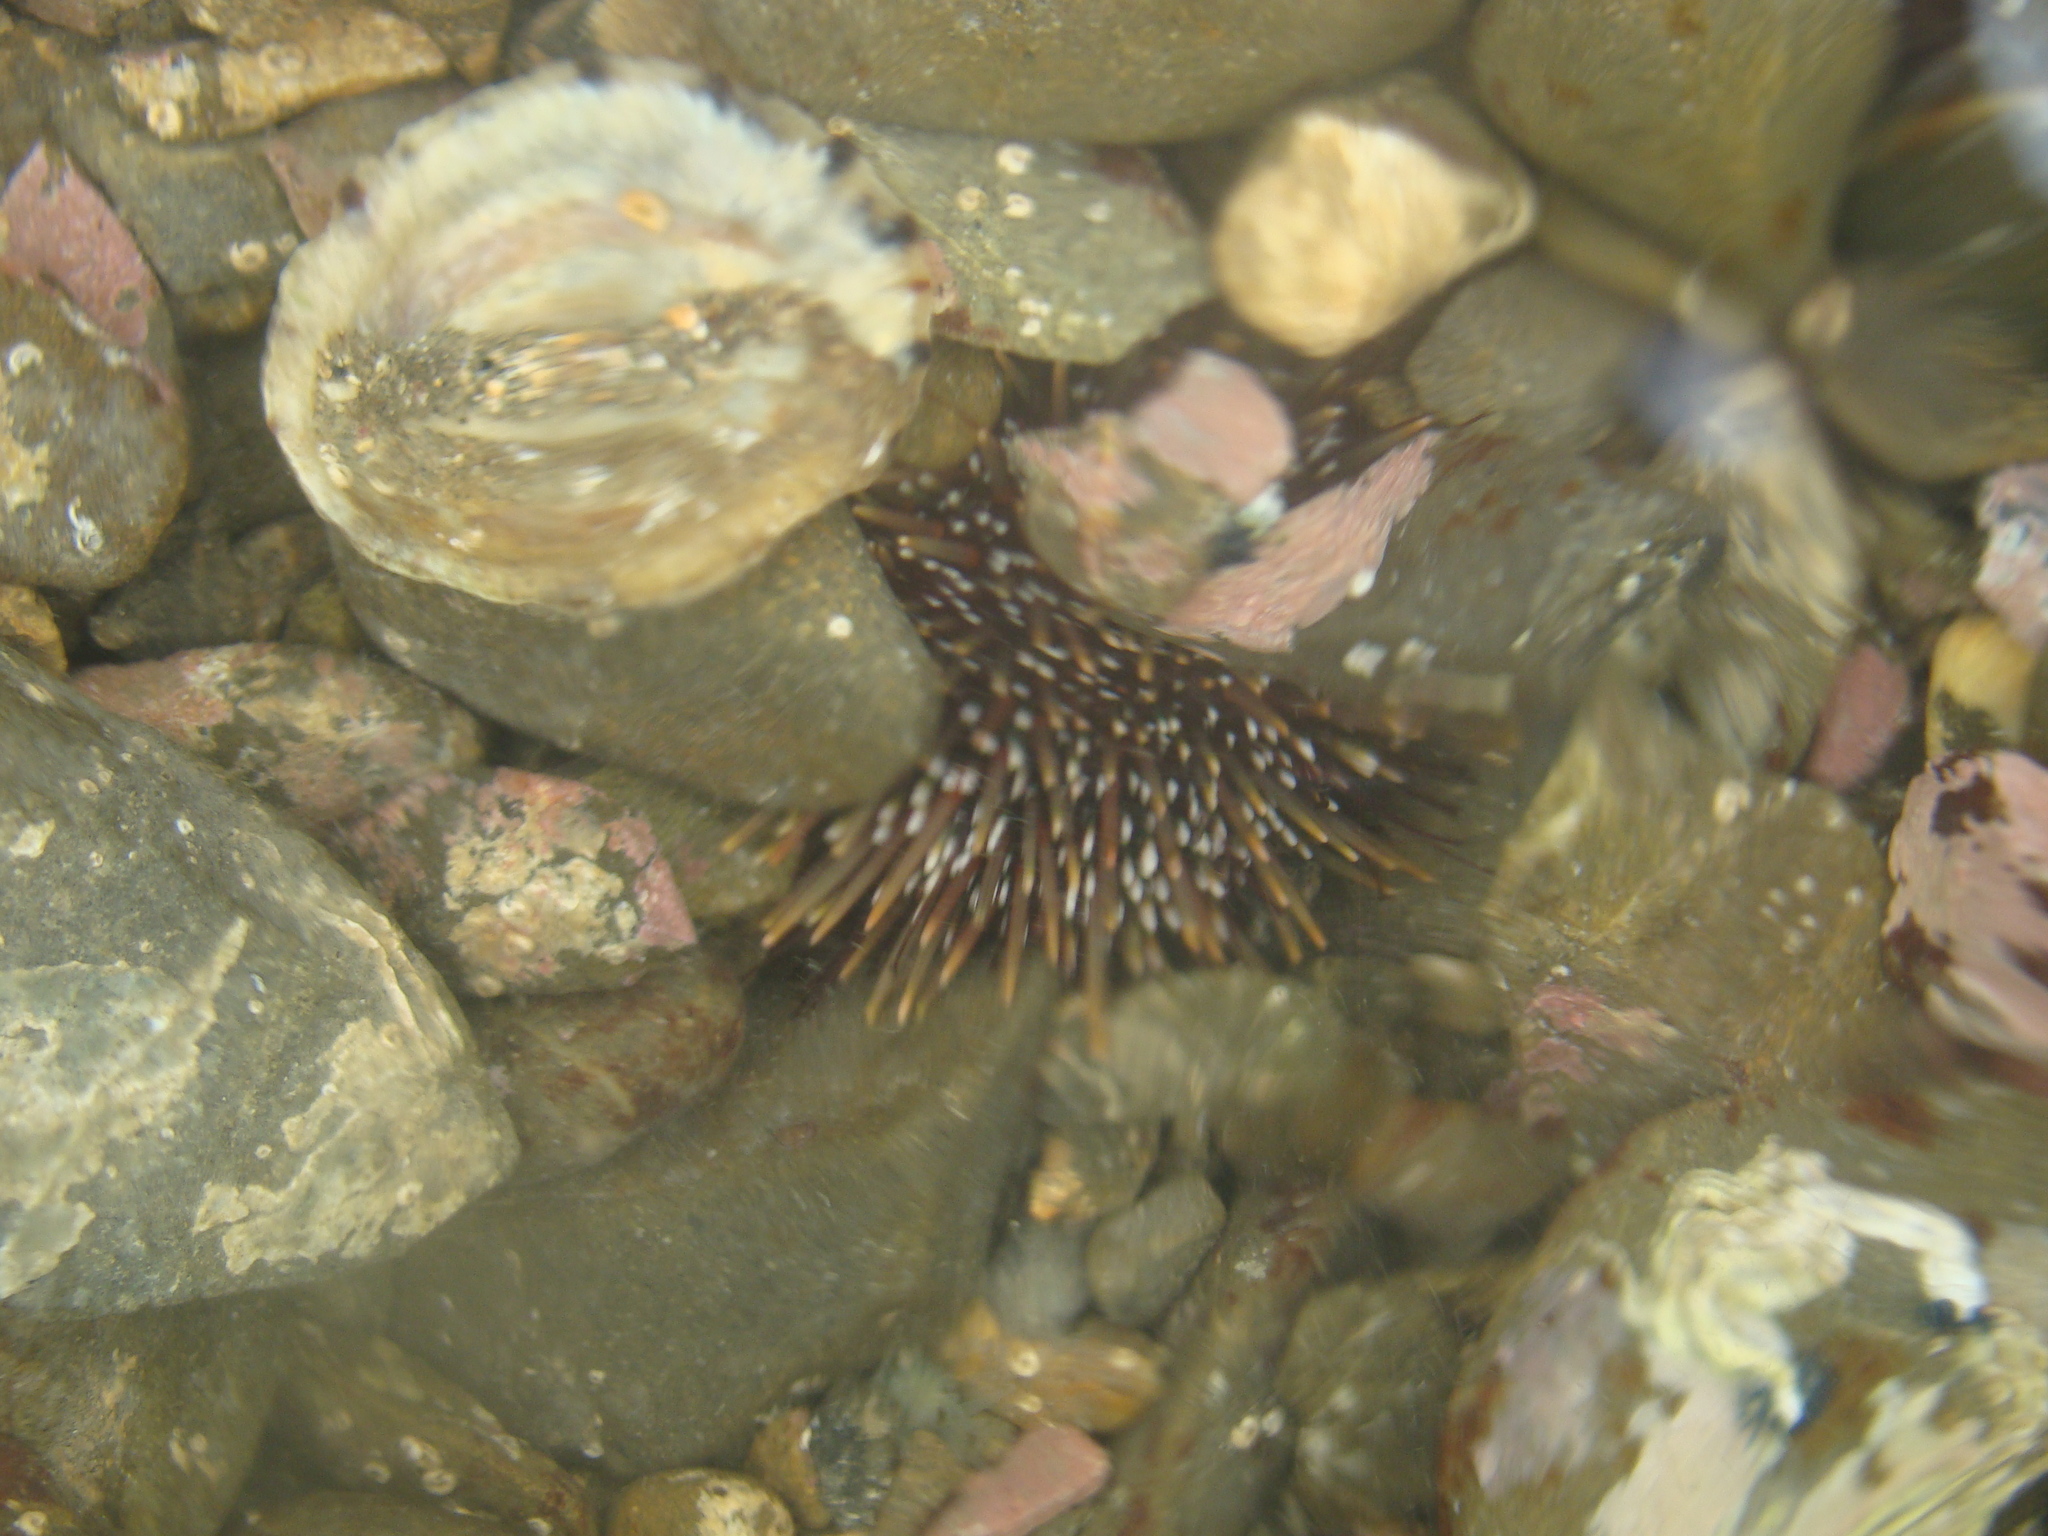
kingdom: Animalia
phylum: Echinodermata
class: Echinoidea
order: Camarodonta
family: Echinometridae
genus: Evechinus
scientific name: Evechinus chloroticus
